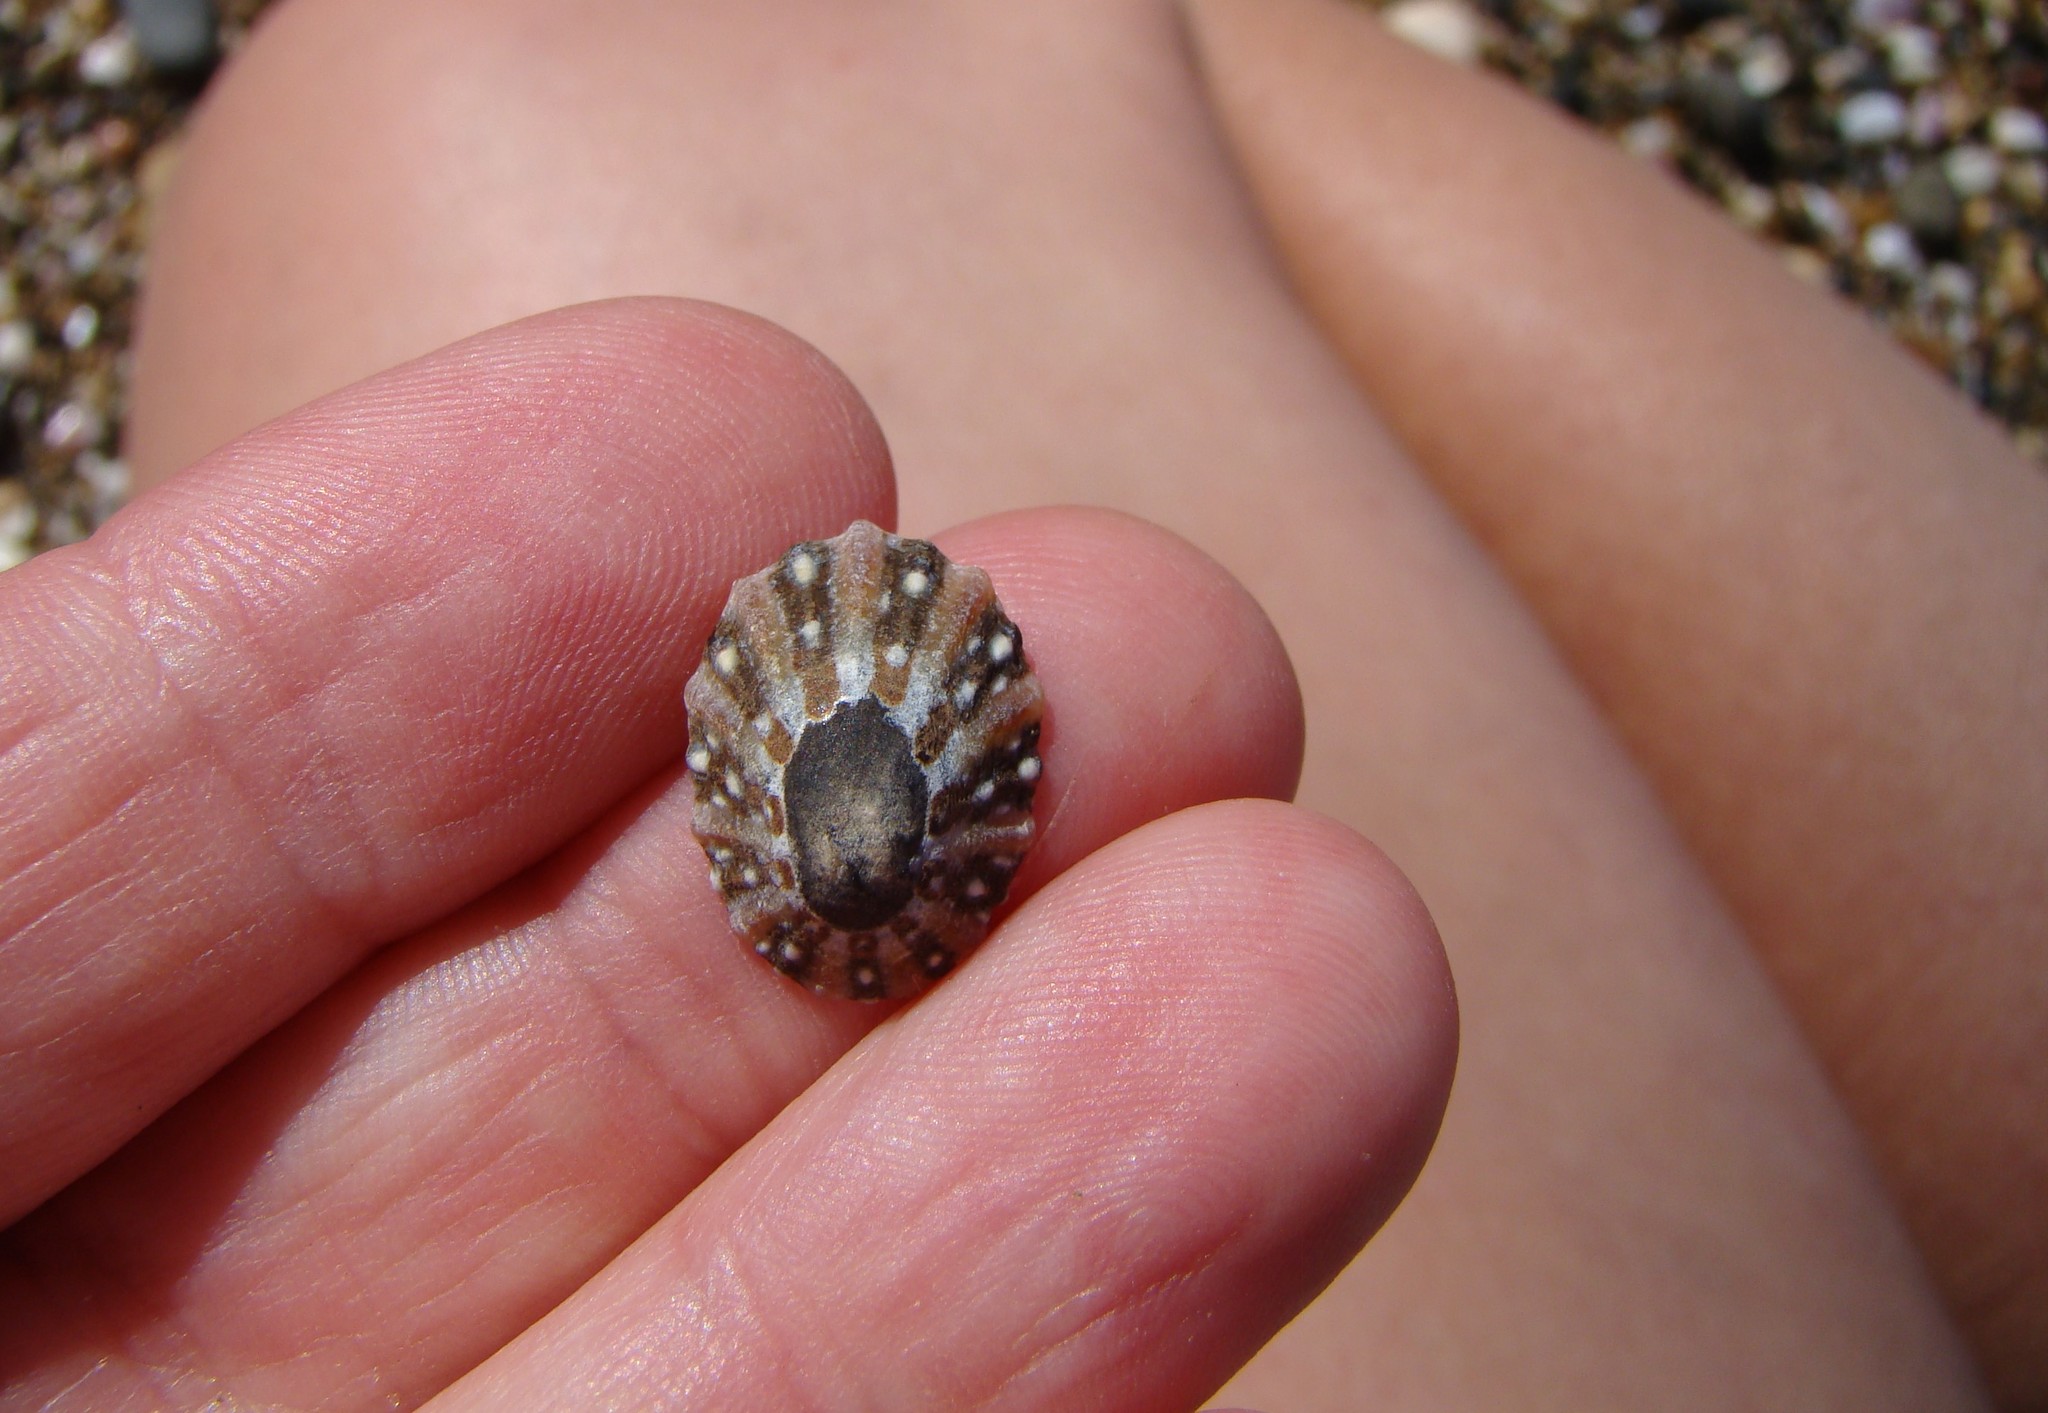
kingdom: Animalia
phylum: Mollusca
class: Gastropoda
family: Nacellidae
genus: Cellana
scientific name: Cellana ornata
